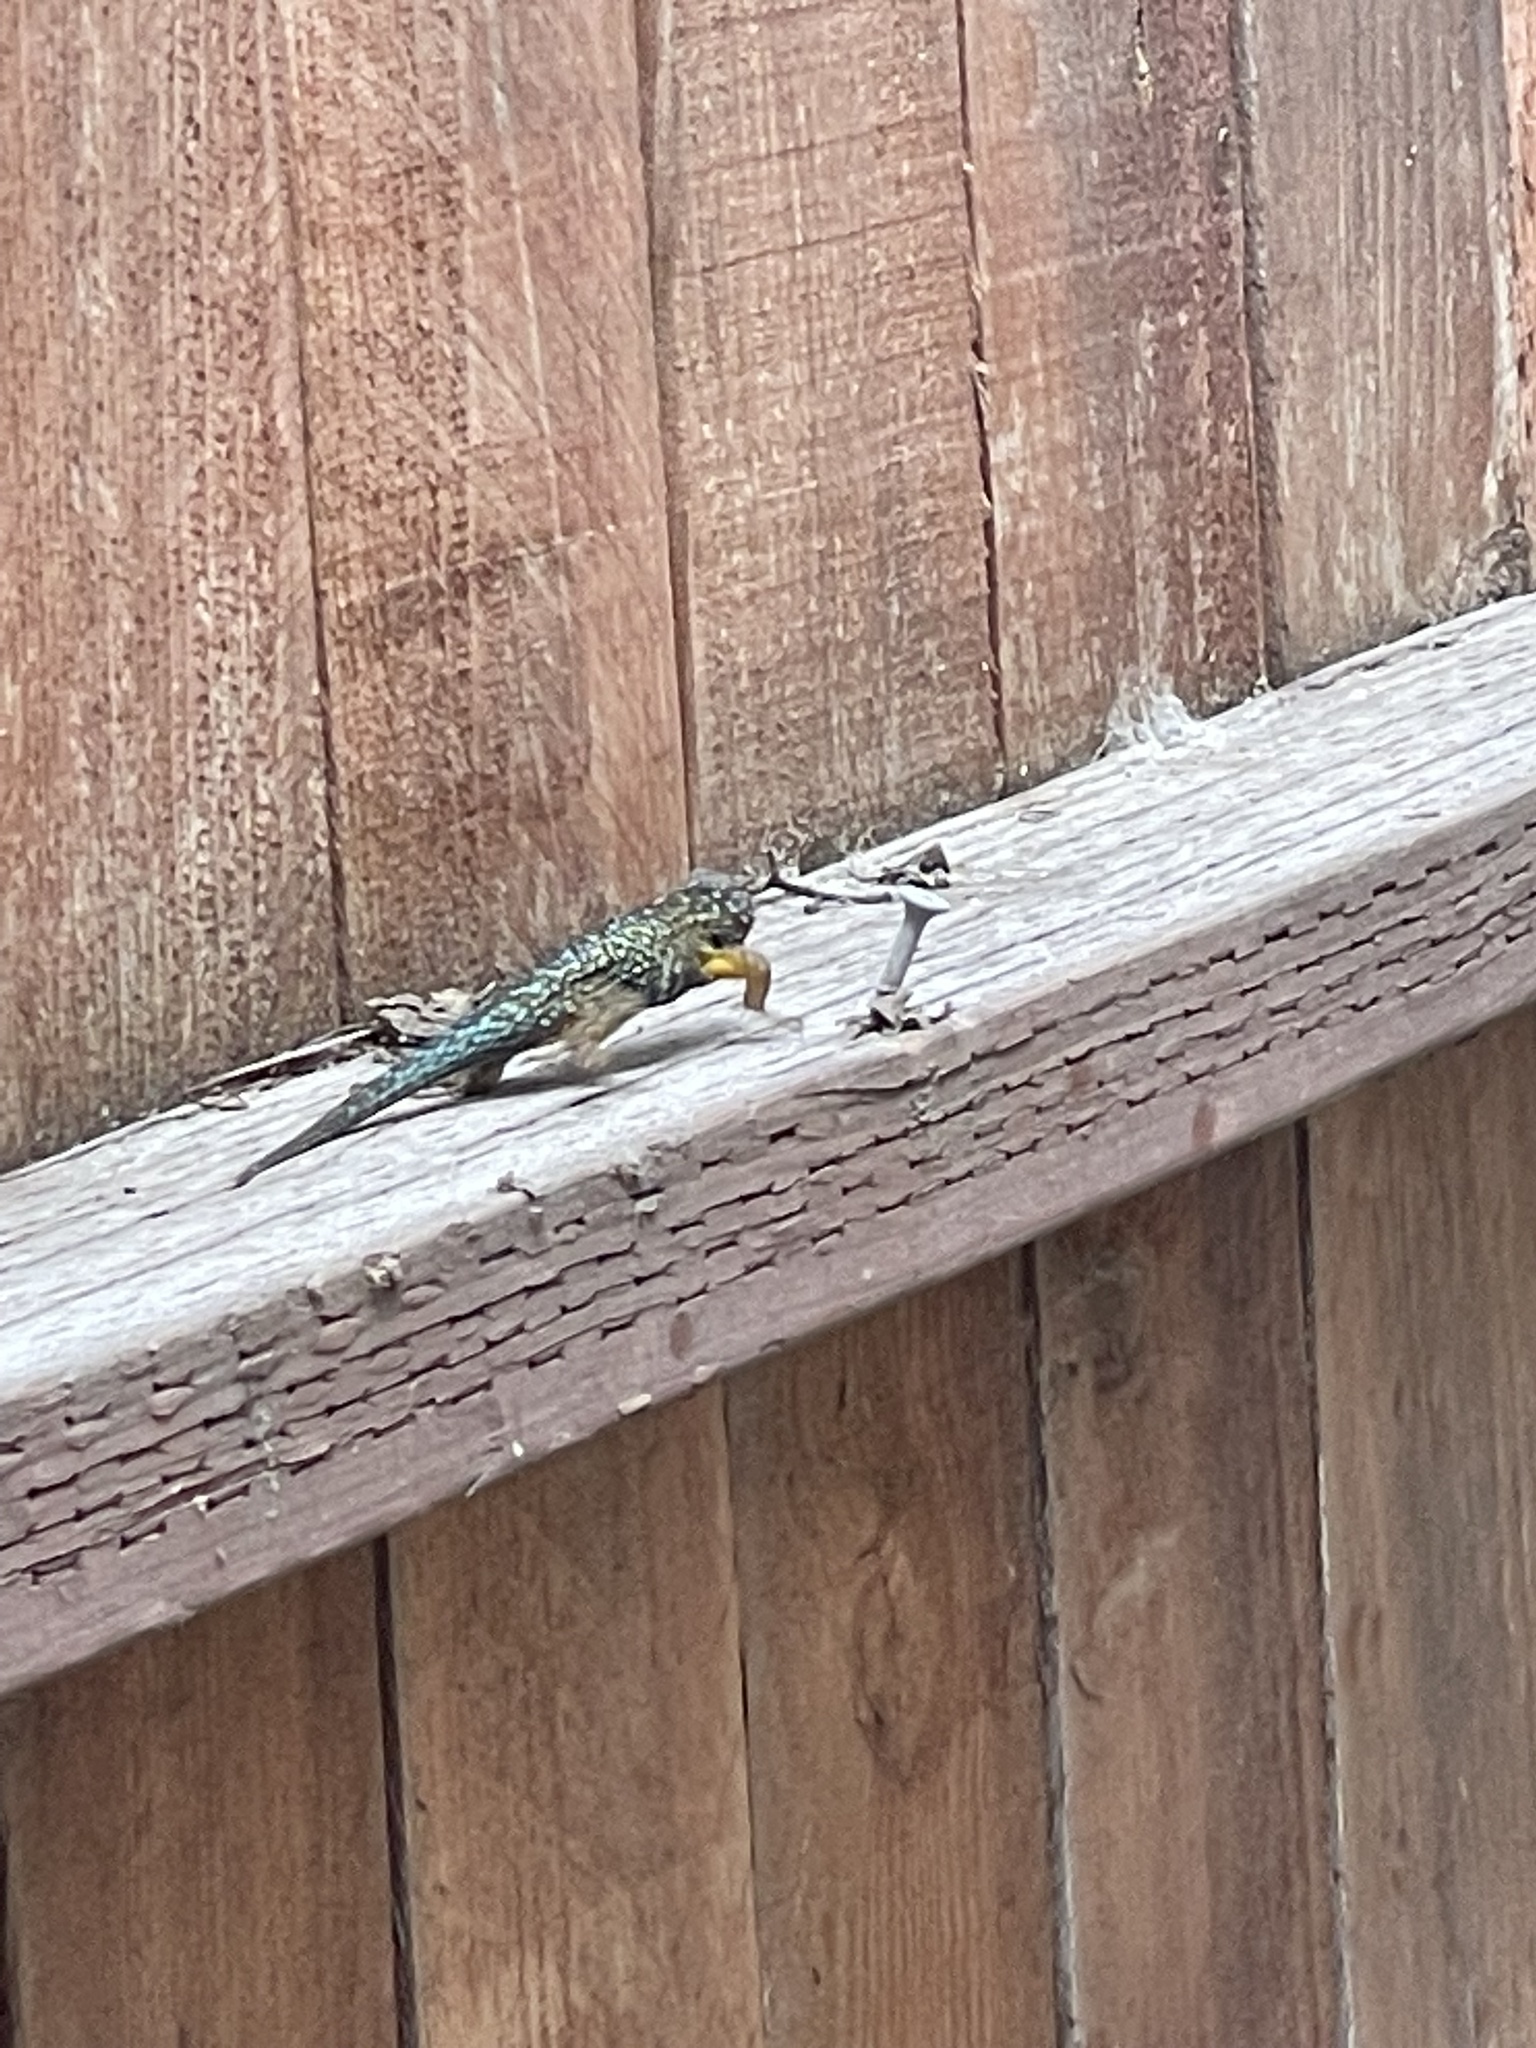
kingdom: Animalia
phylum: Chordata
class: Squamata
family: Phrynosomatidae
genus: Sceloporus
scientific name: Sceloporus occidentalis
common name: Western fence lizard
